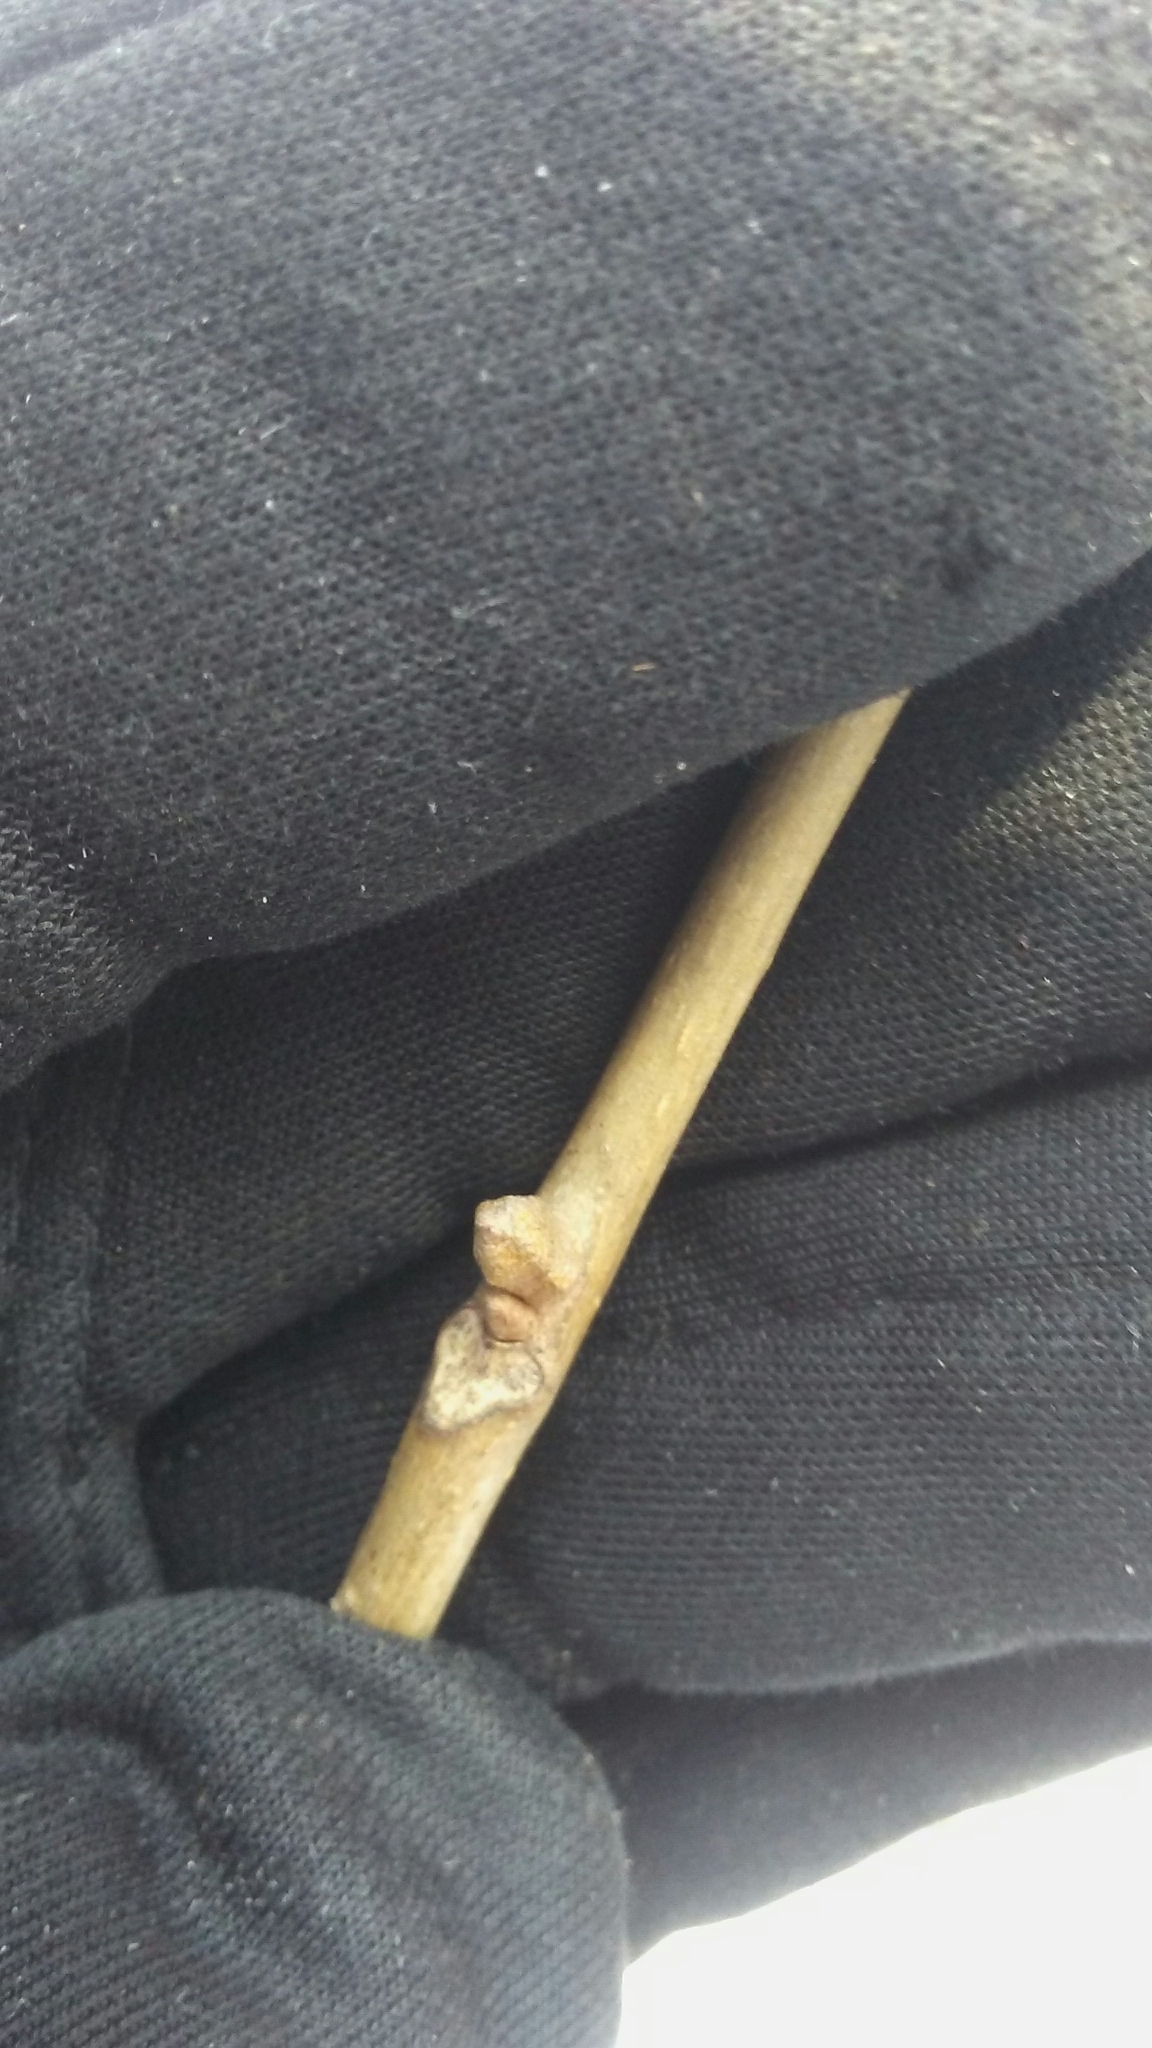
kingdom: Plantae
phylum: Tracheophyta
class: Magnoliopsida
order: Fagales
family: Juglandaceae
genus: Carya
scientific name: Carya cordiformis
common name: Bitternut hickory
